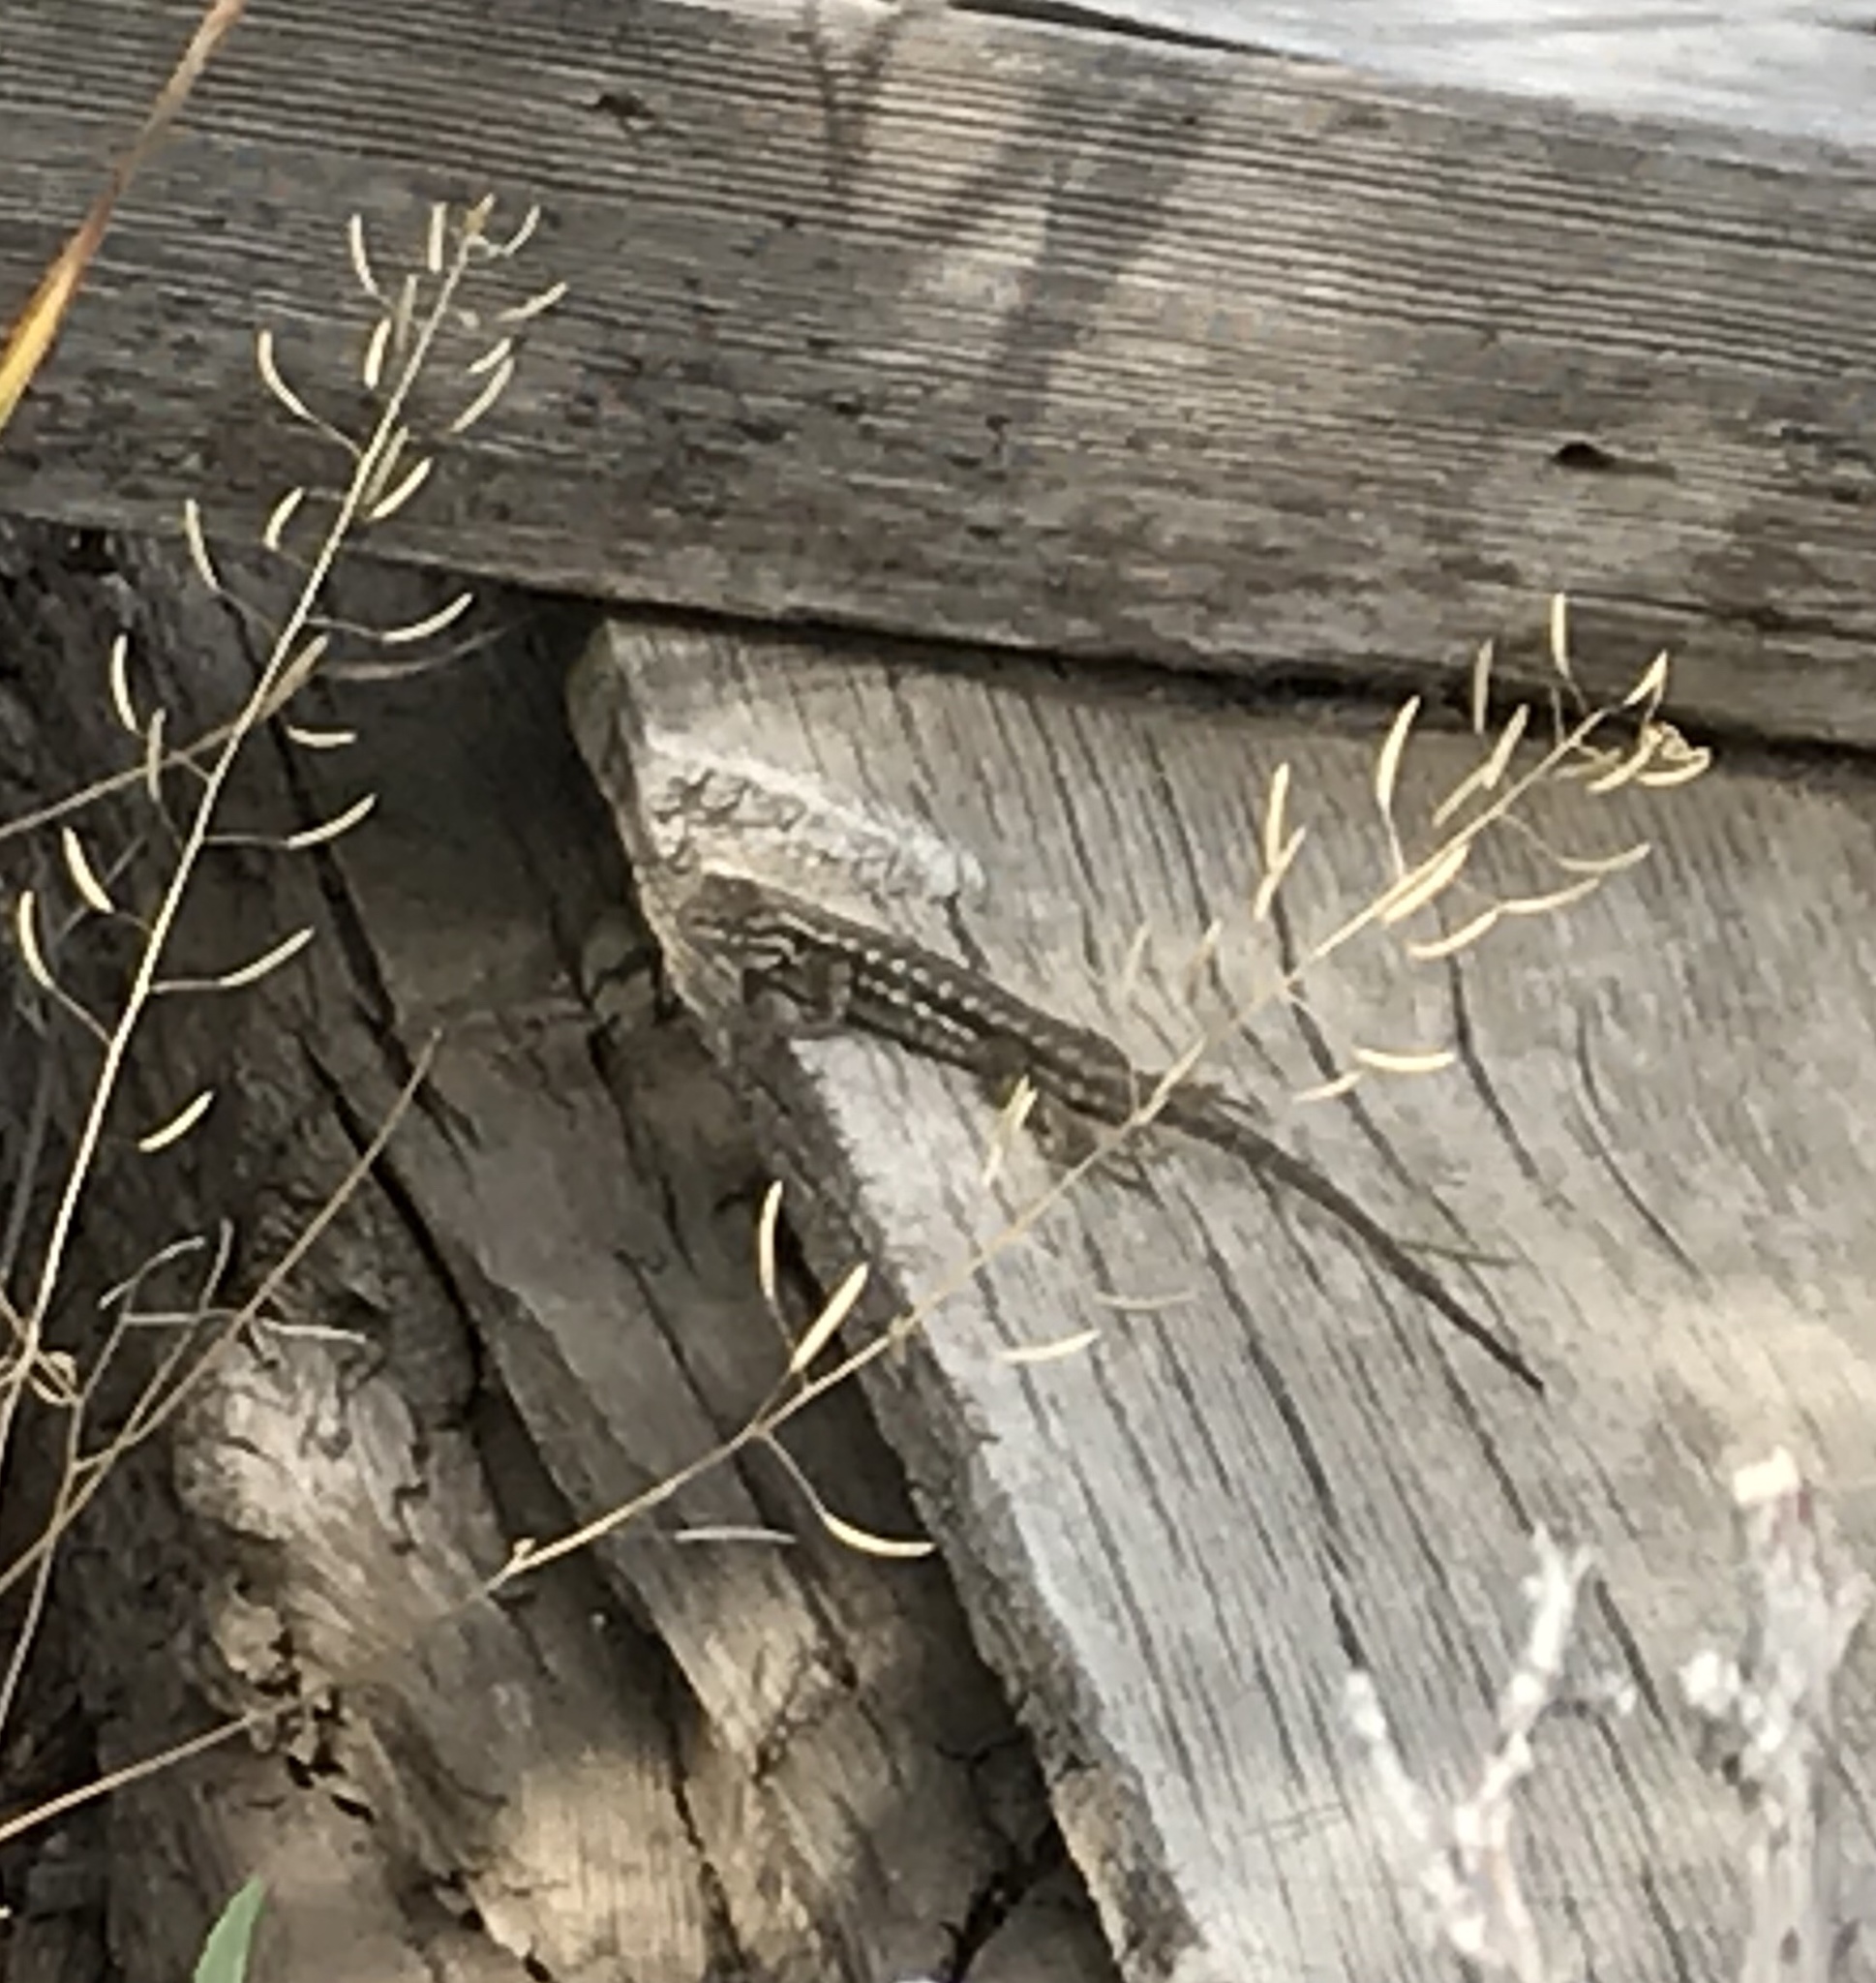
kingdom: Animalia
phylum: Chordata
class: Squamata
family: Phrynosomatidae
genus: Sceloporus
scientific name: Sceloporus graciosus
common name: Sagebrush lizard
